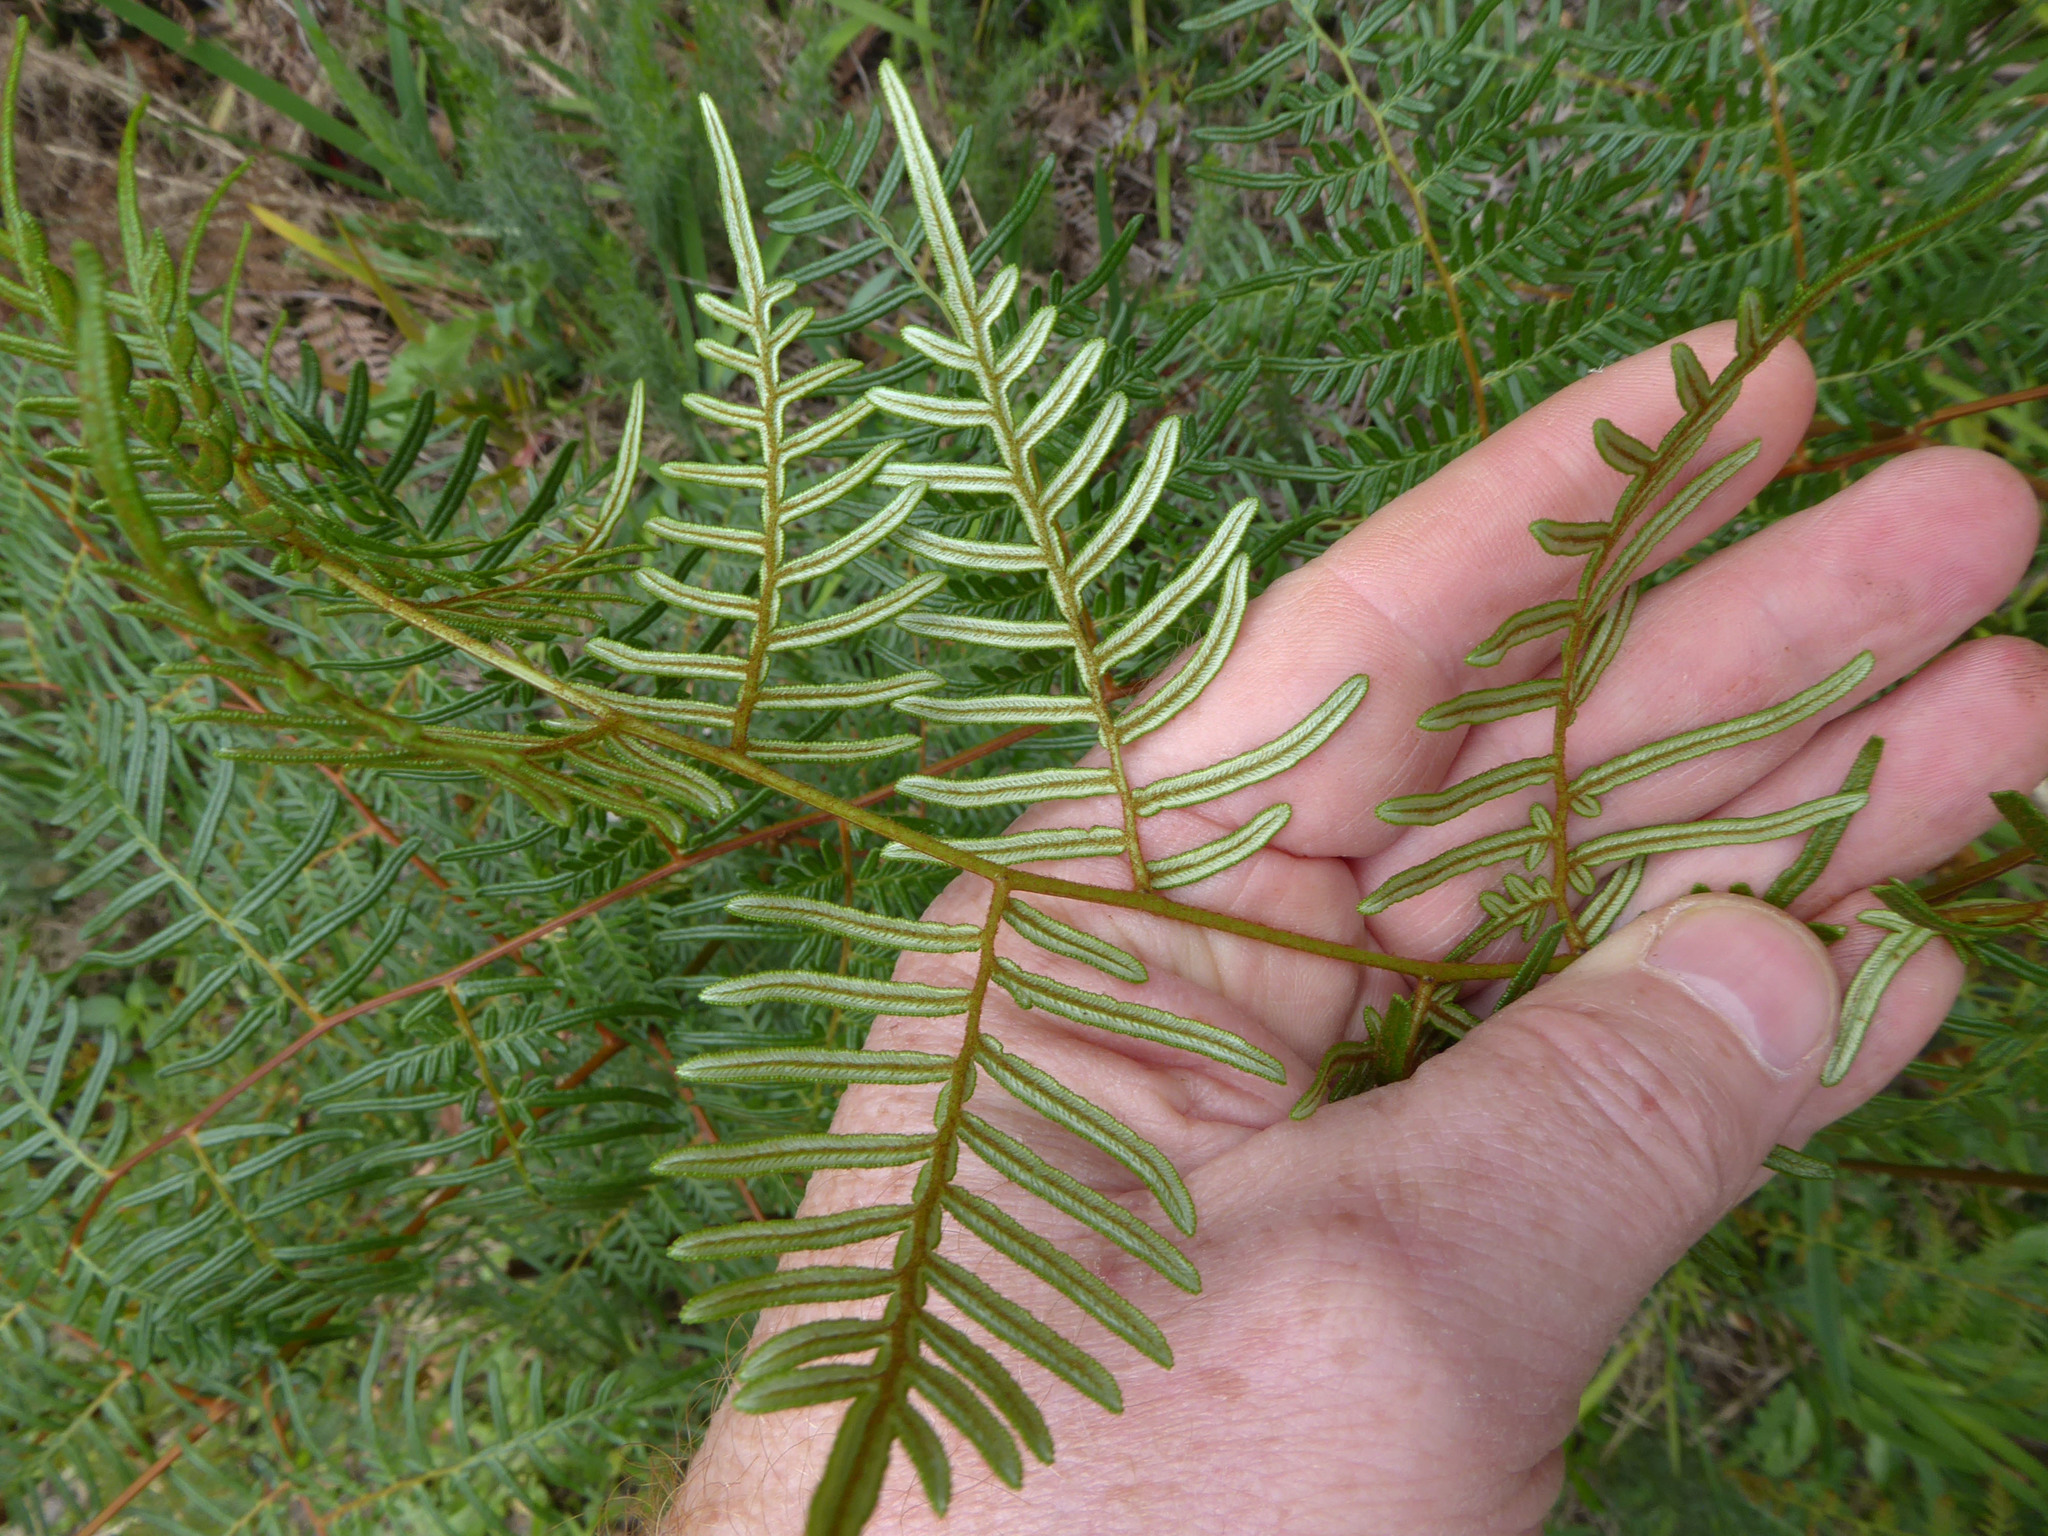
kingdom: Plantae
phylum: Tracheophyta
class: Polypodiopsida
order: Polypodiales
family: Dennstaedtiaceae
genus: Pteridium
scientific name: Pteridium esculentum
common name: Bracken fern
